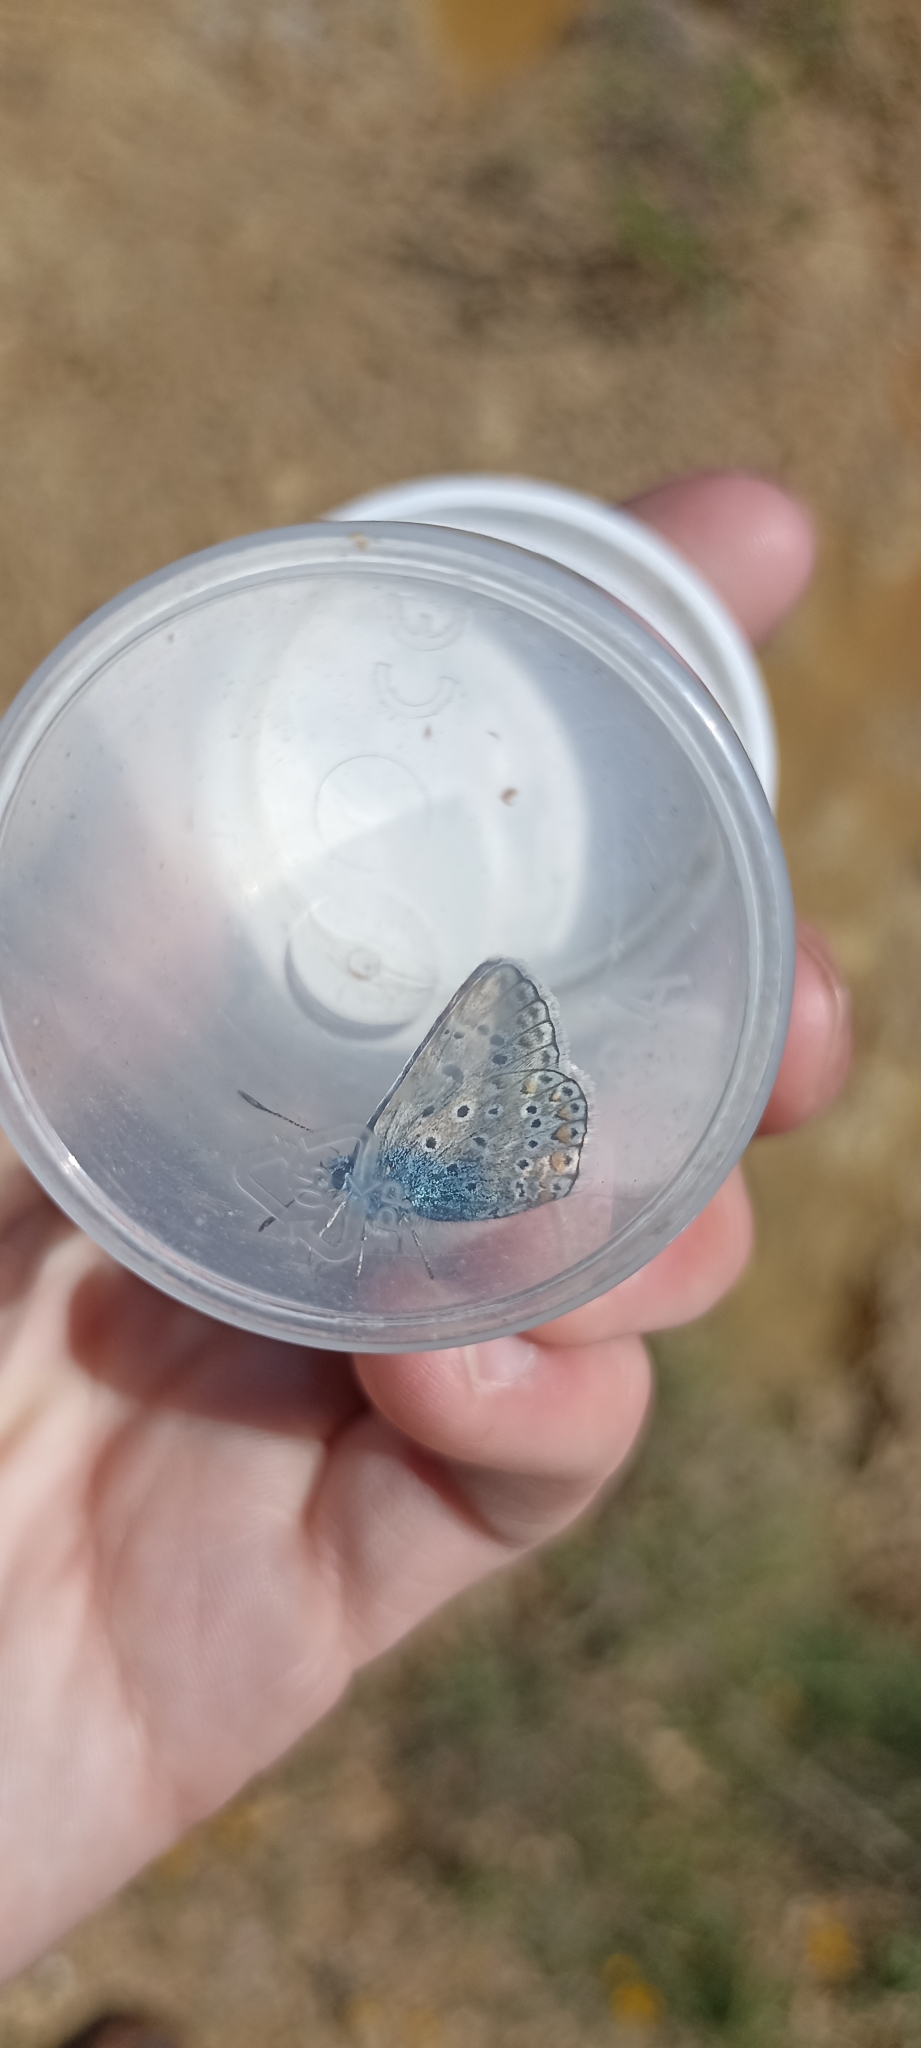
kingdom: Animalia
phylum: Arthropoda
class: Insecta
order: Lepidoptera
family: Lycaenidae
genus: Polyommatus
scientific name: Polyommatus icarus
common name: Common blue
